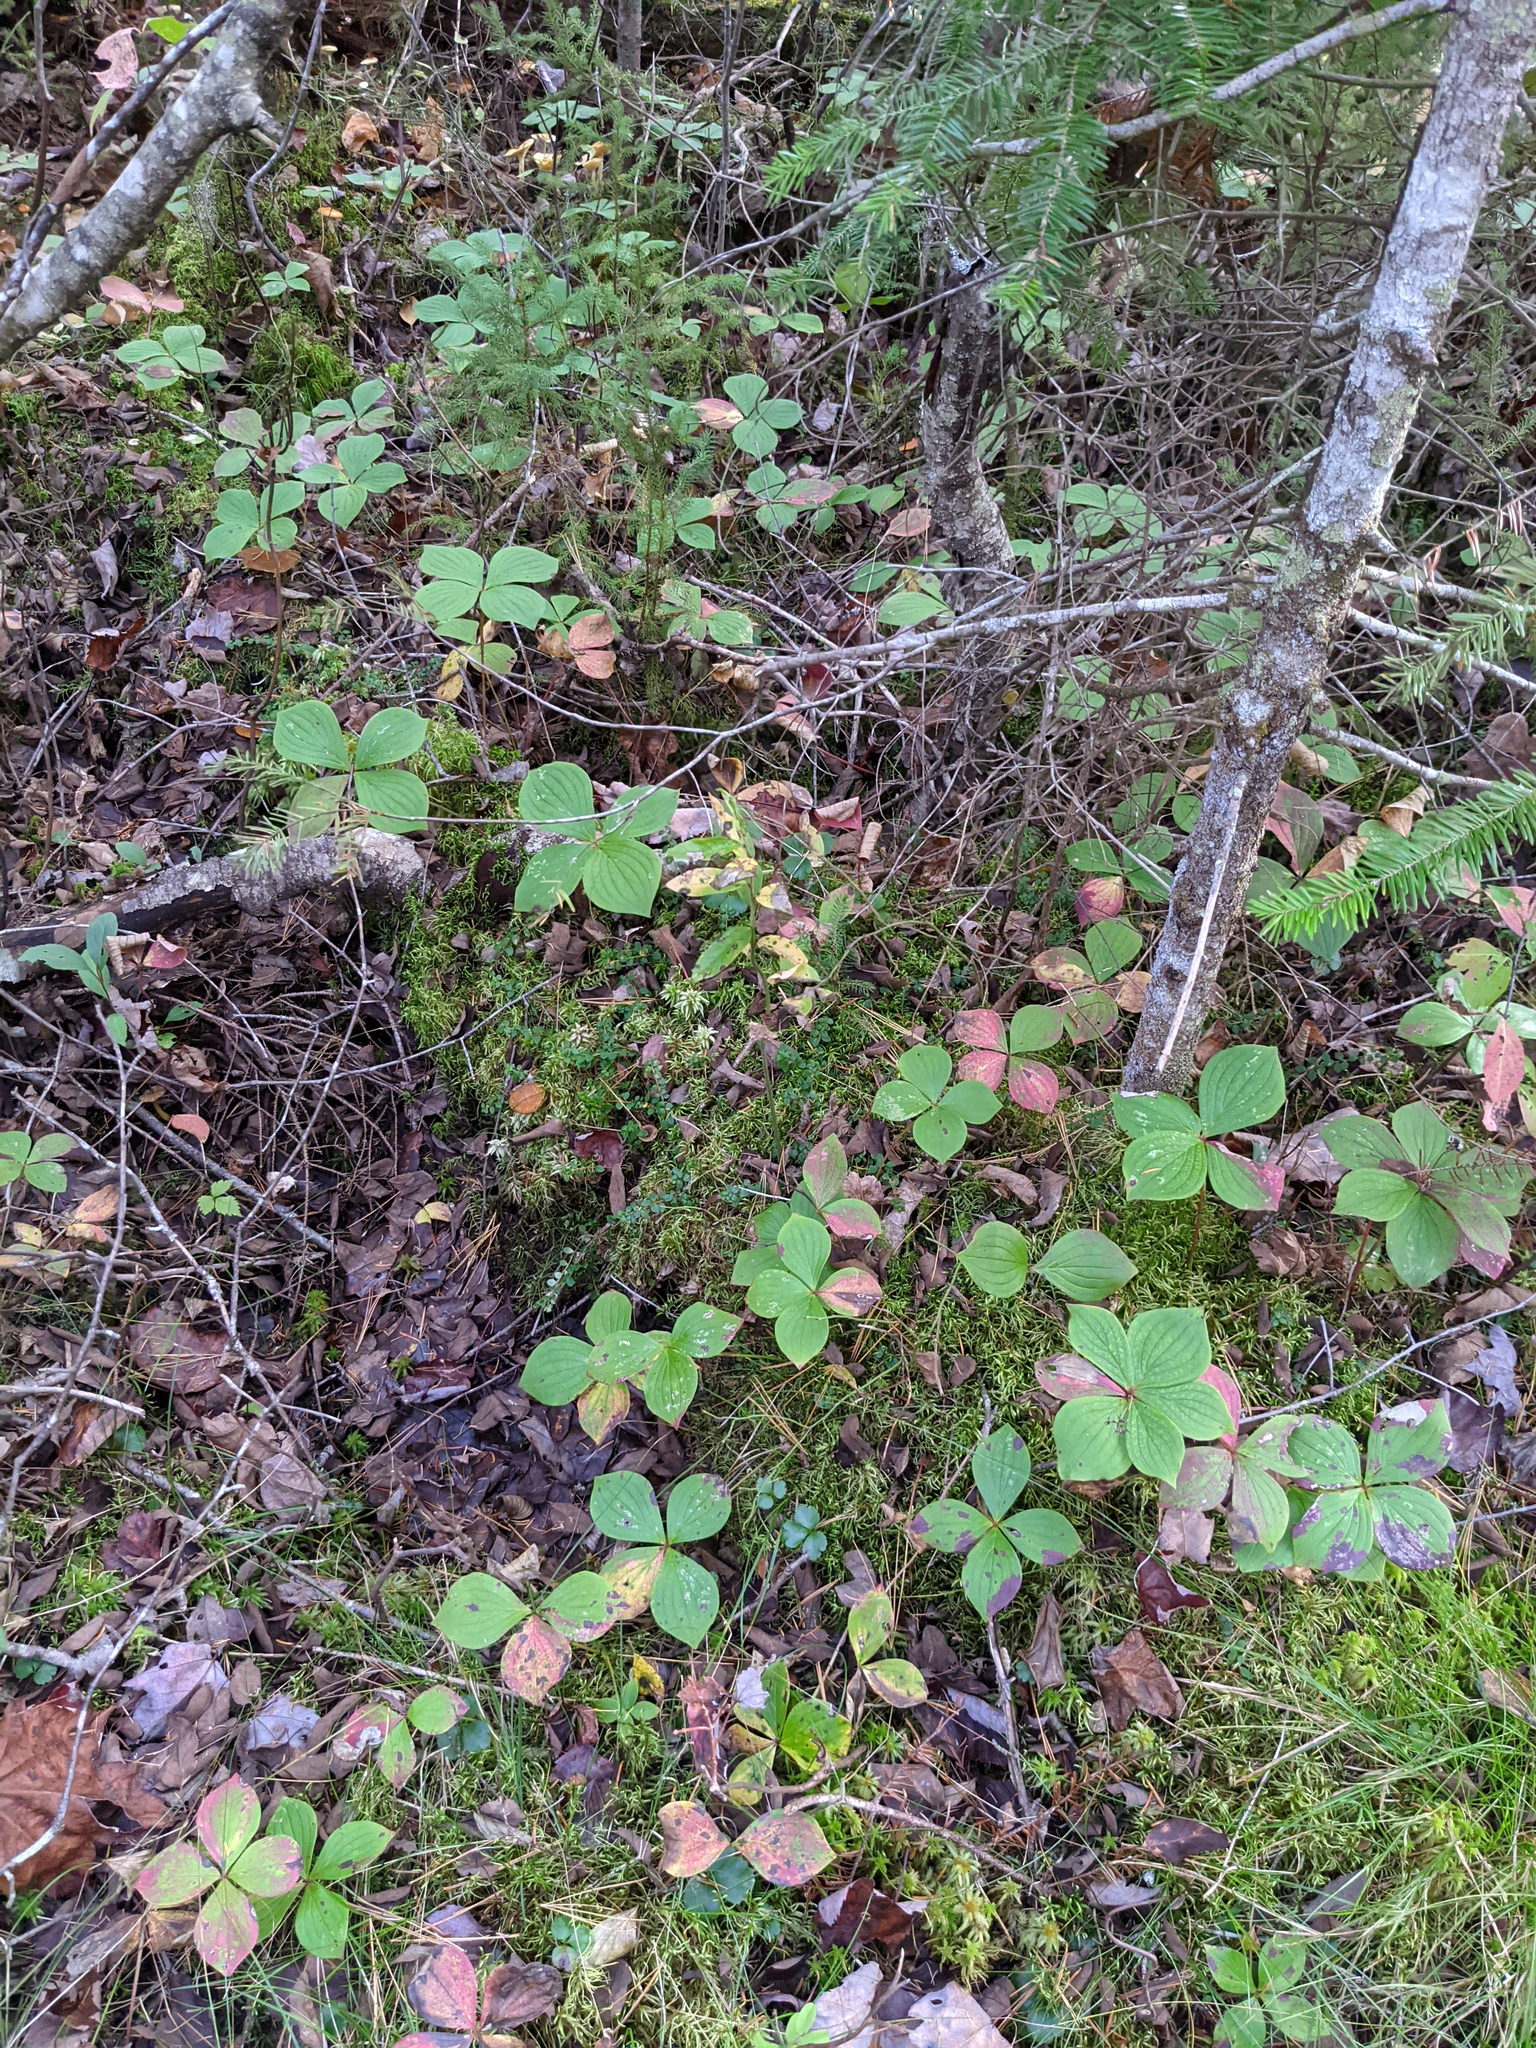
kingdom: Plantae
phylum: Tracheophyta
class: Magnoliopsida
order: Cornales
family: Cornaceae
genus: Cornus
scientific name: Cornus canadensis
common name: Creeping dogwood
